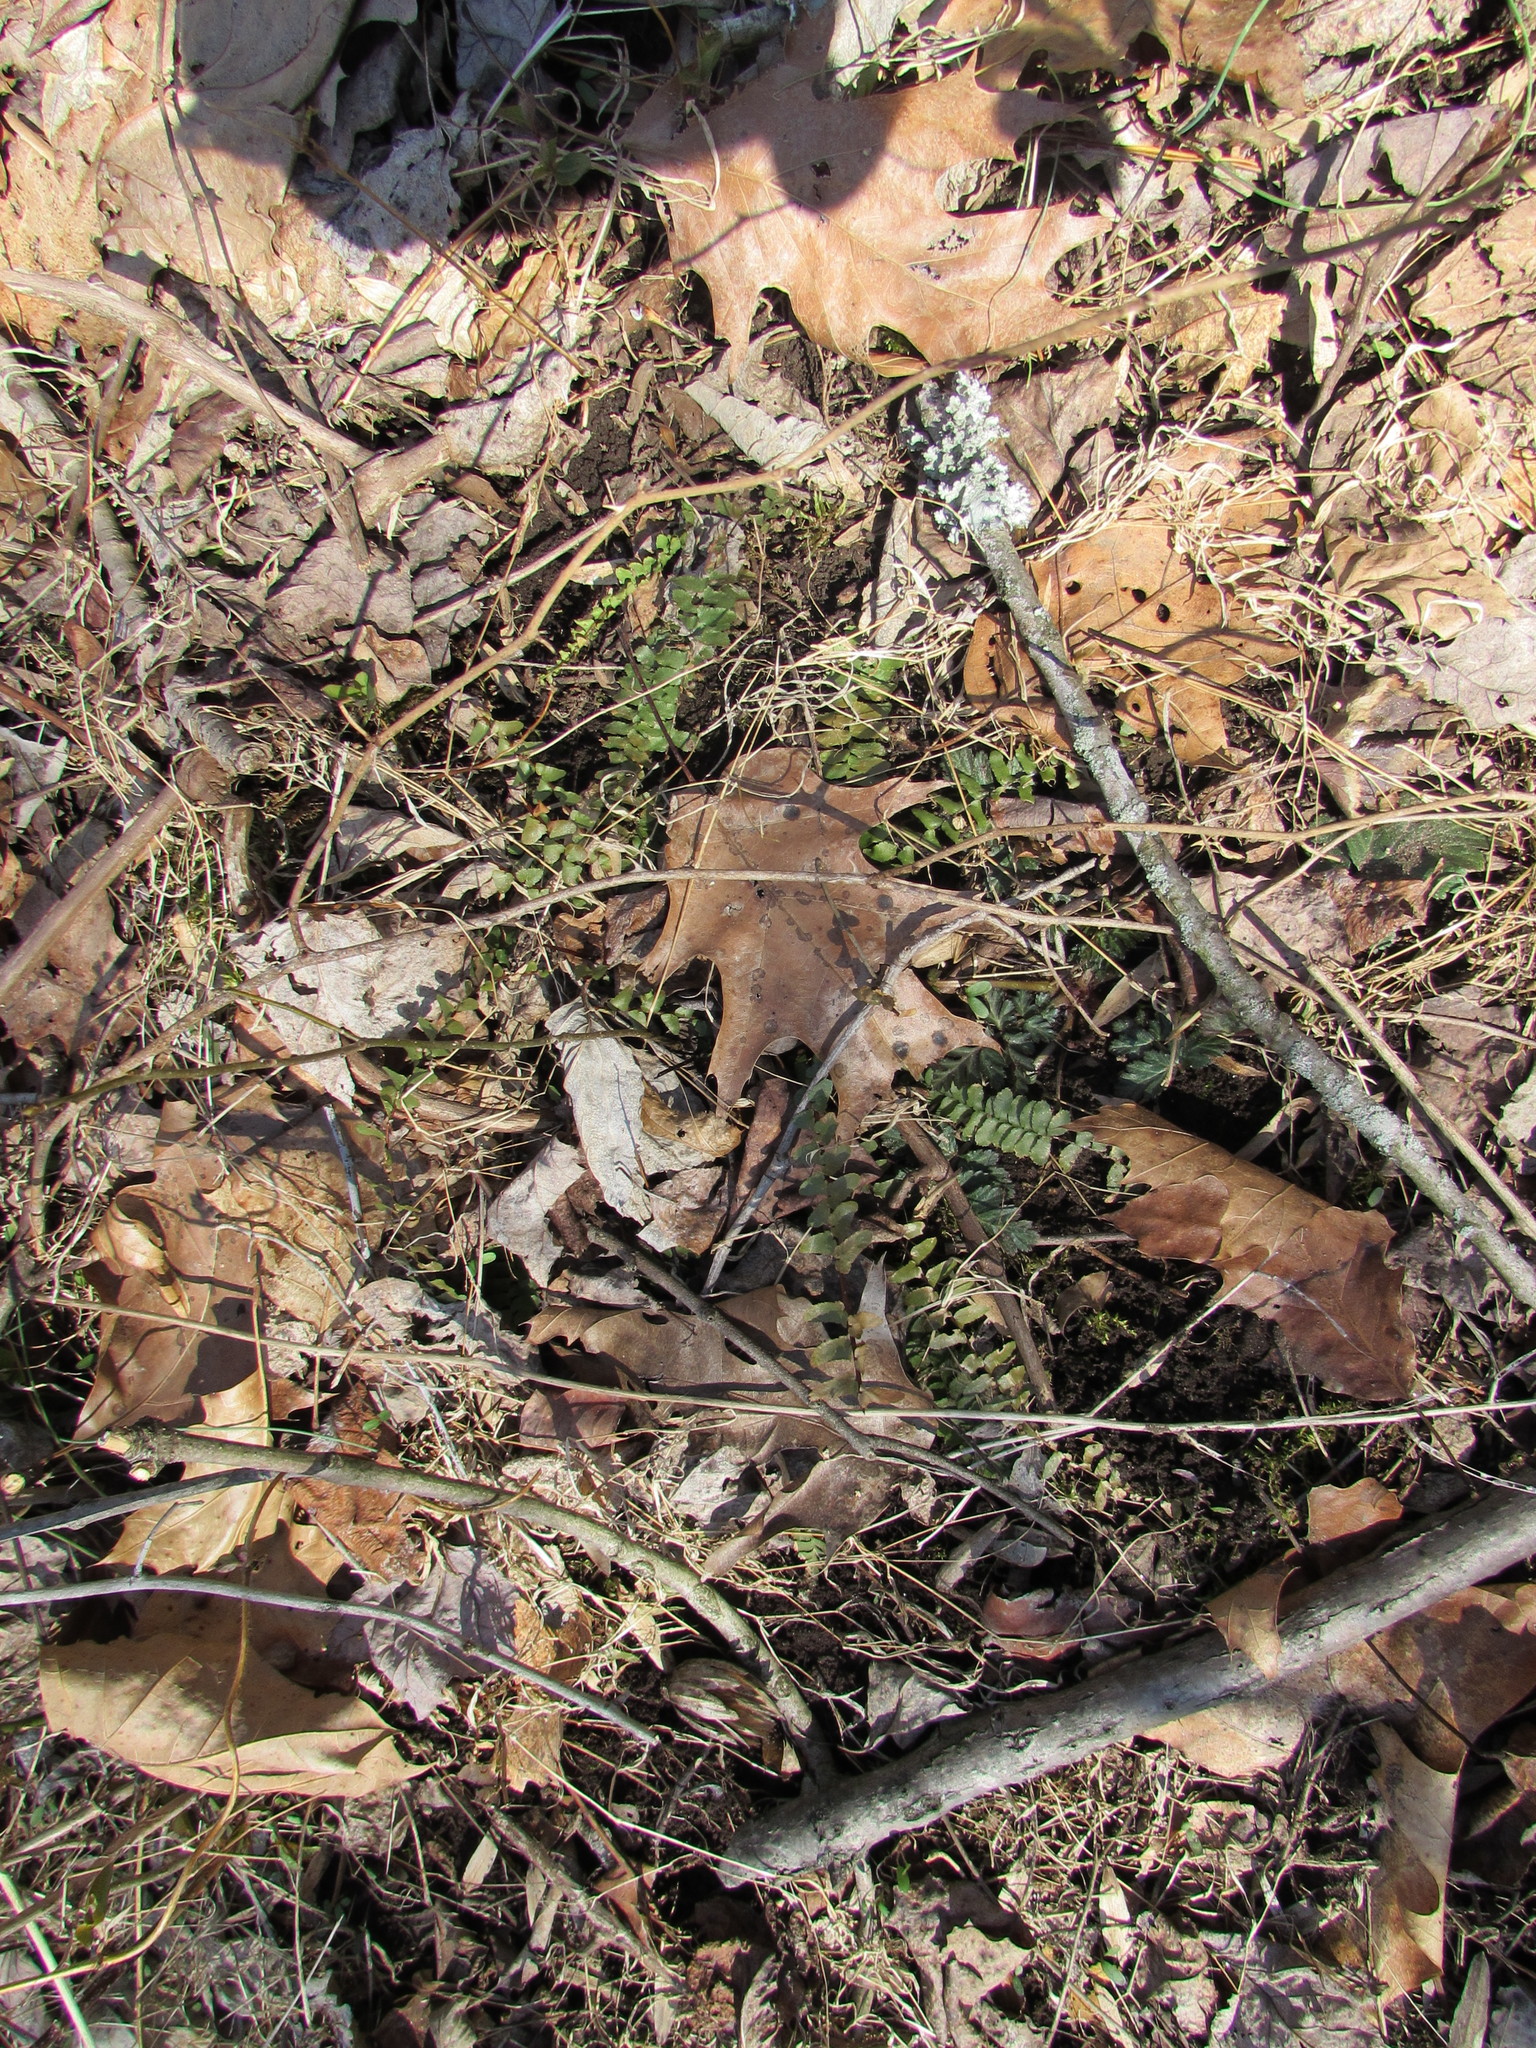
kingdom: Plantae
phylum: Tracheophyta
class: Polypodiopsida
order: Polypodiales
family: Aspleniaceae
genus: Asplenium
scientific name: Asplenium platyneuron
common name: Ebony spleenwort
